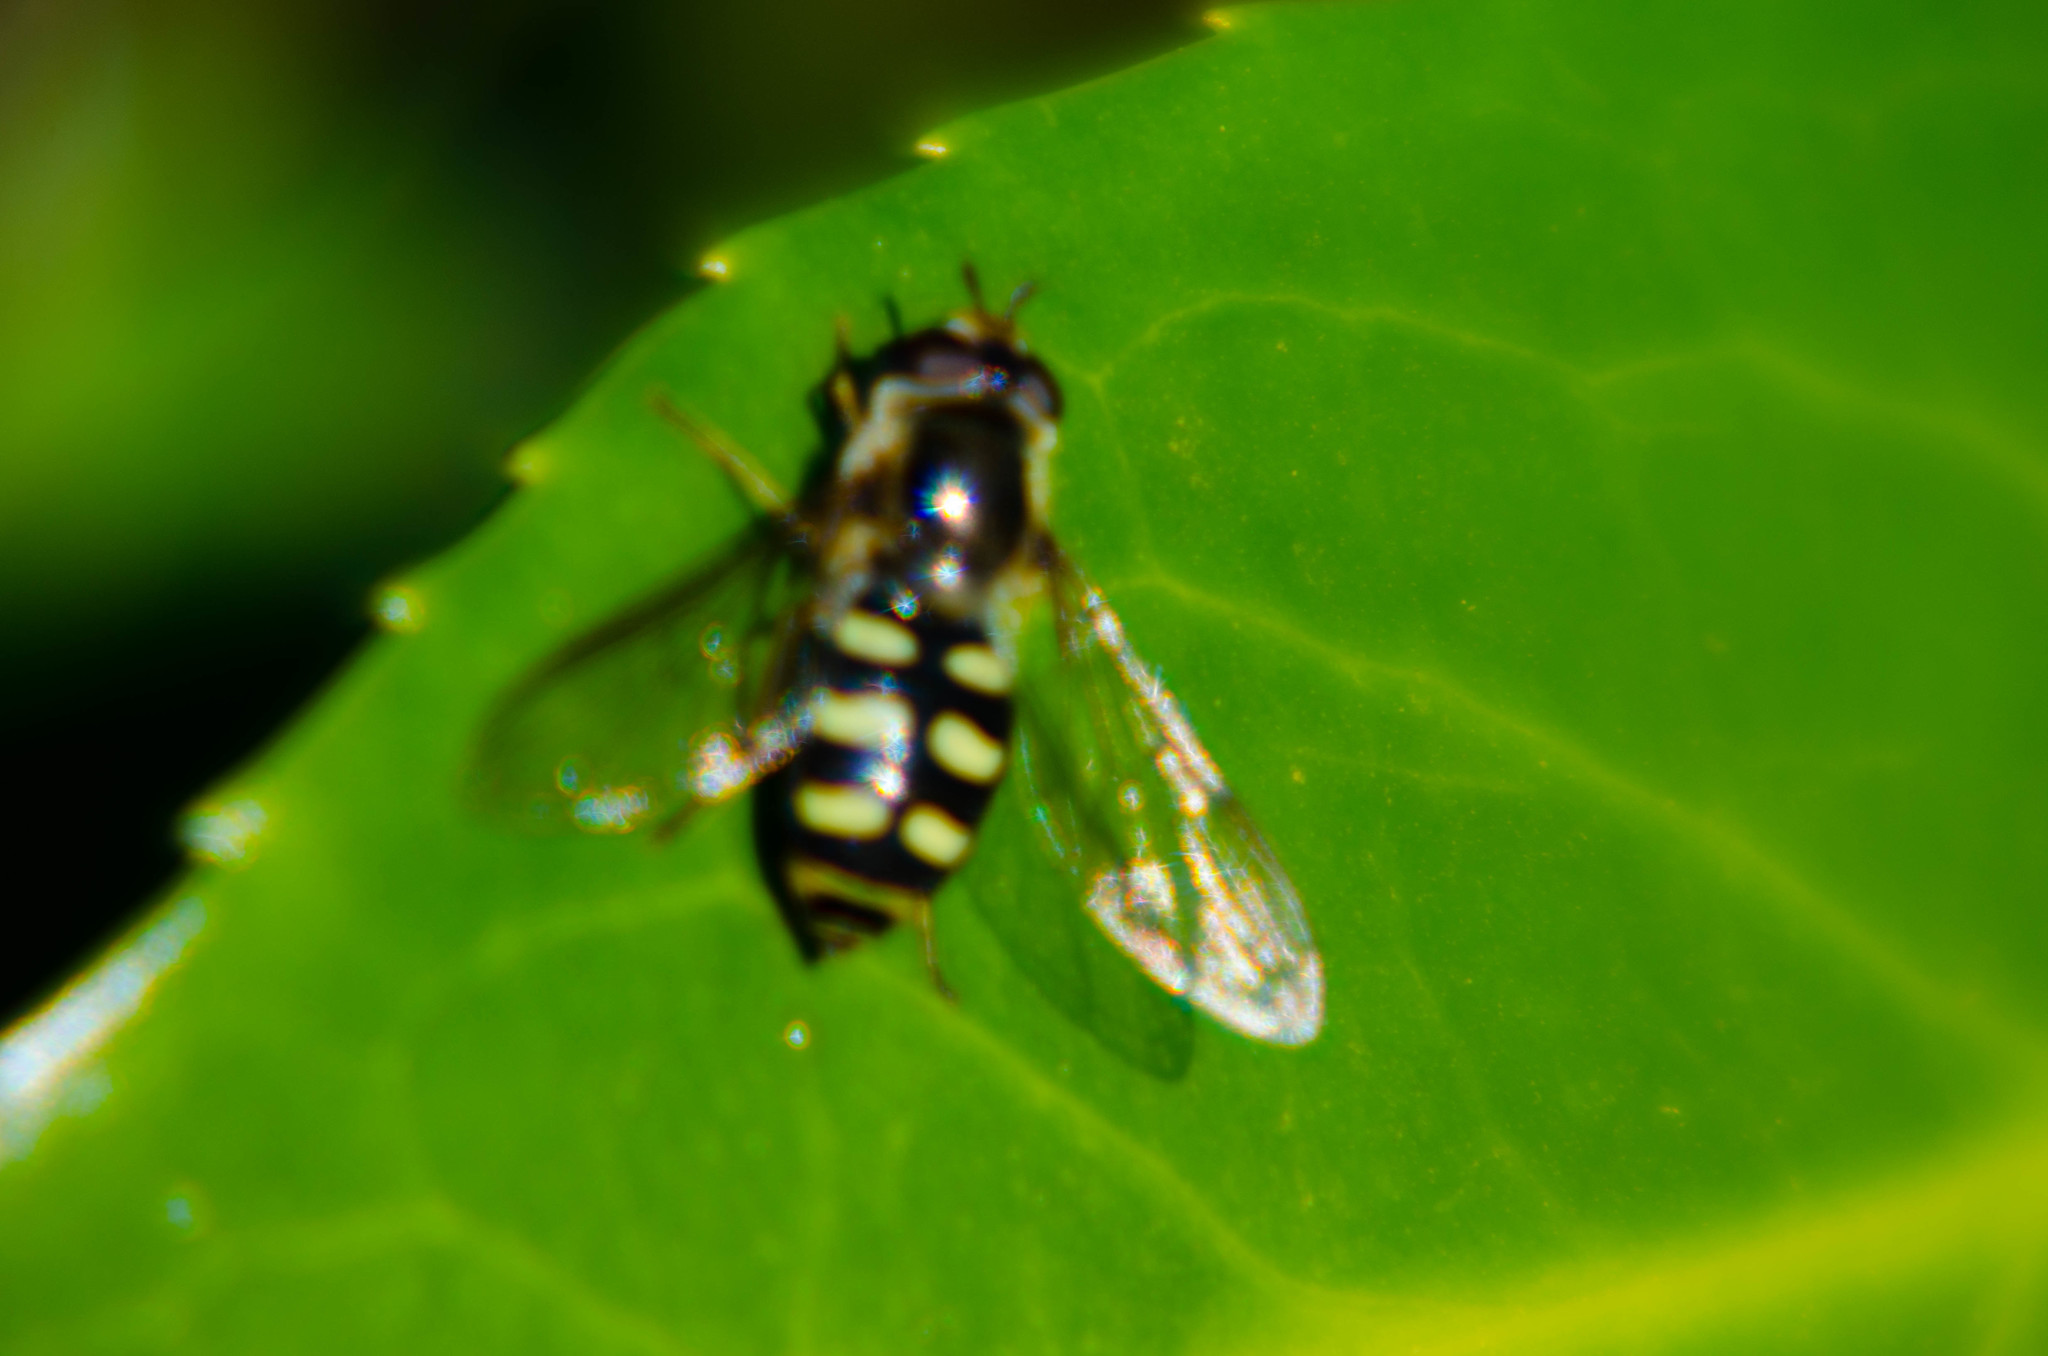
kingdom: Animalia
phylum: Arthropoda
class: Insecta
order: Diptera
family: Syrphidae
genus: Eupeodes
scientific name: Eupeodes
